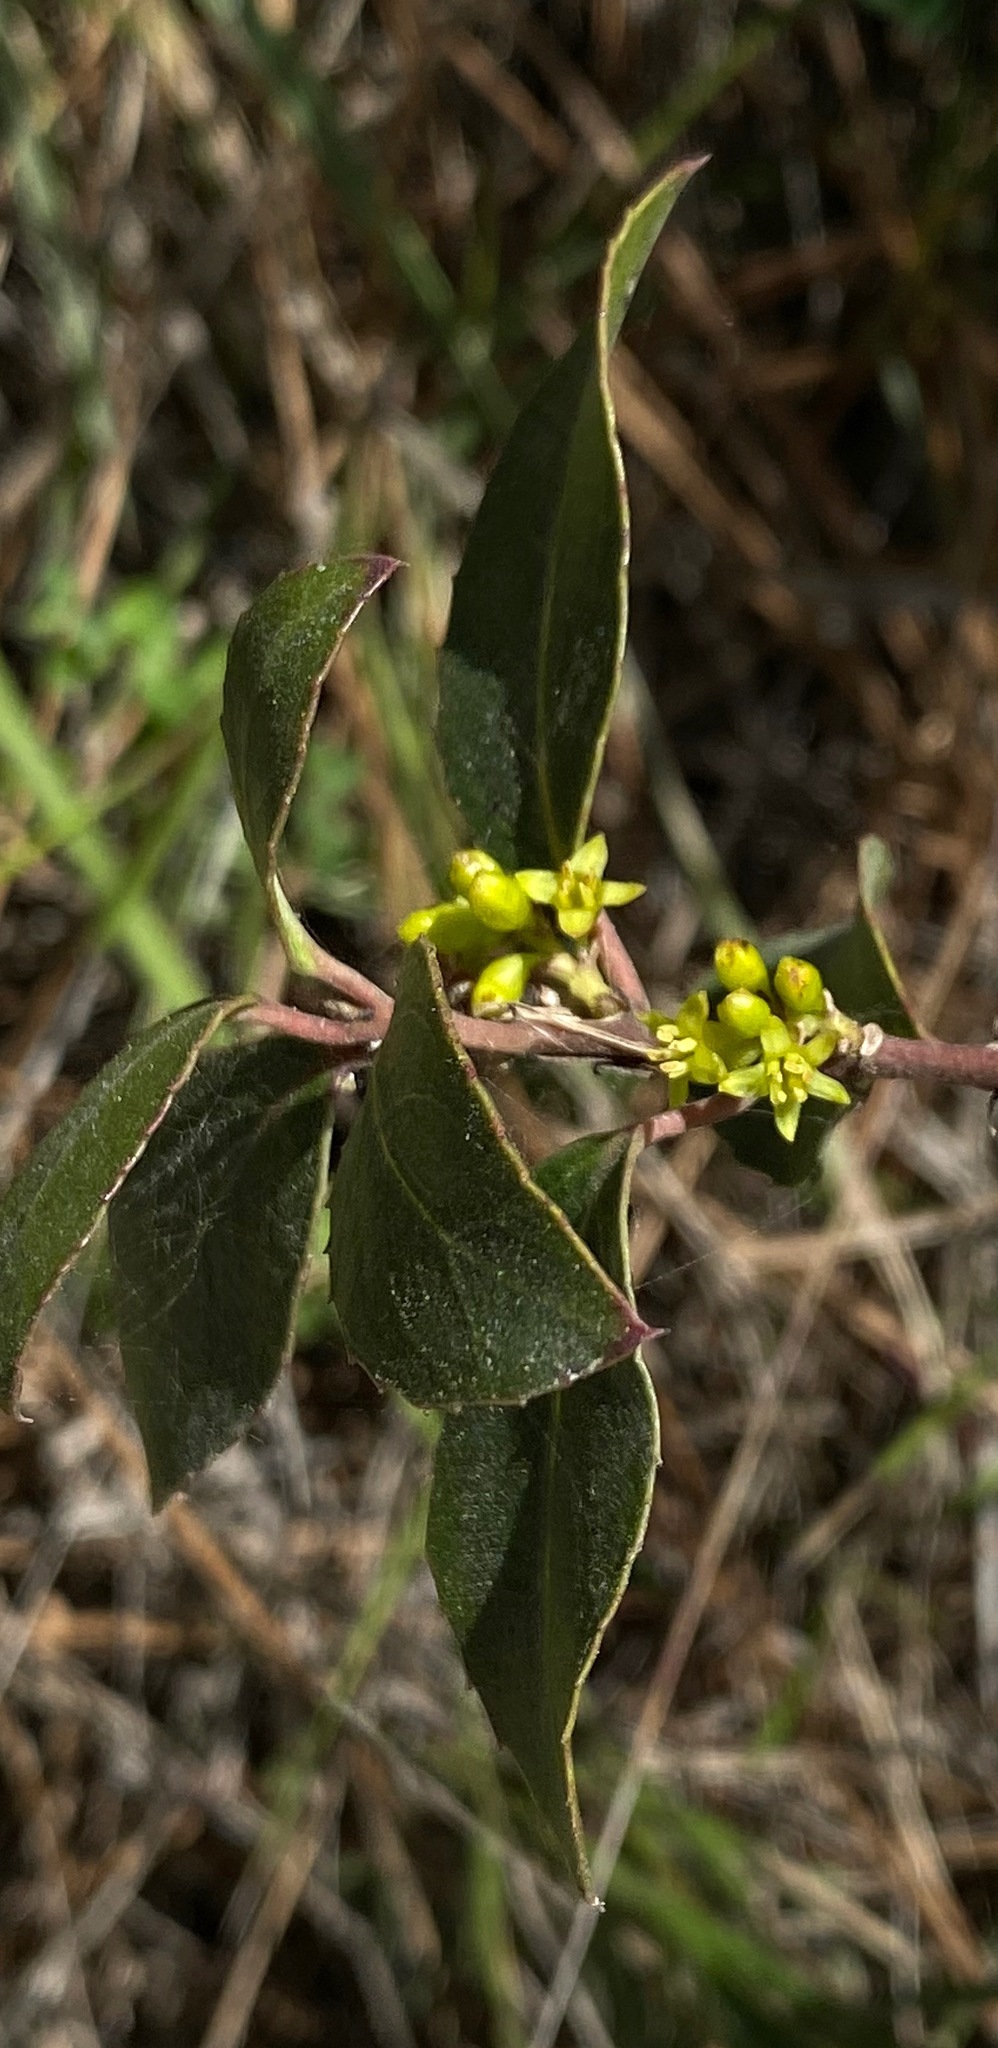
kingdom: Plantae
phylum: Tracheophyta
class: Magnoliopsida
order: Rosales
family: Rhamnaceae
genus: Rhamnus
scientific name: Rhamnus alaternus
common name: Mediterranean buckthorn
